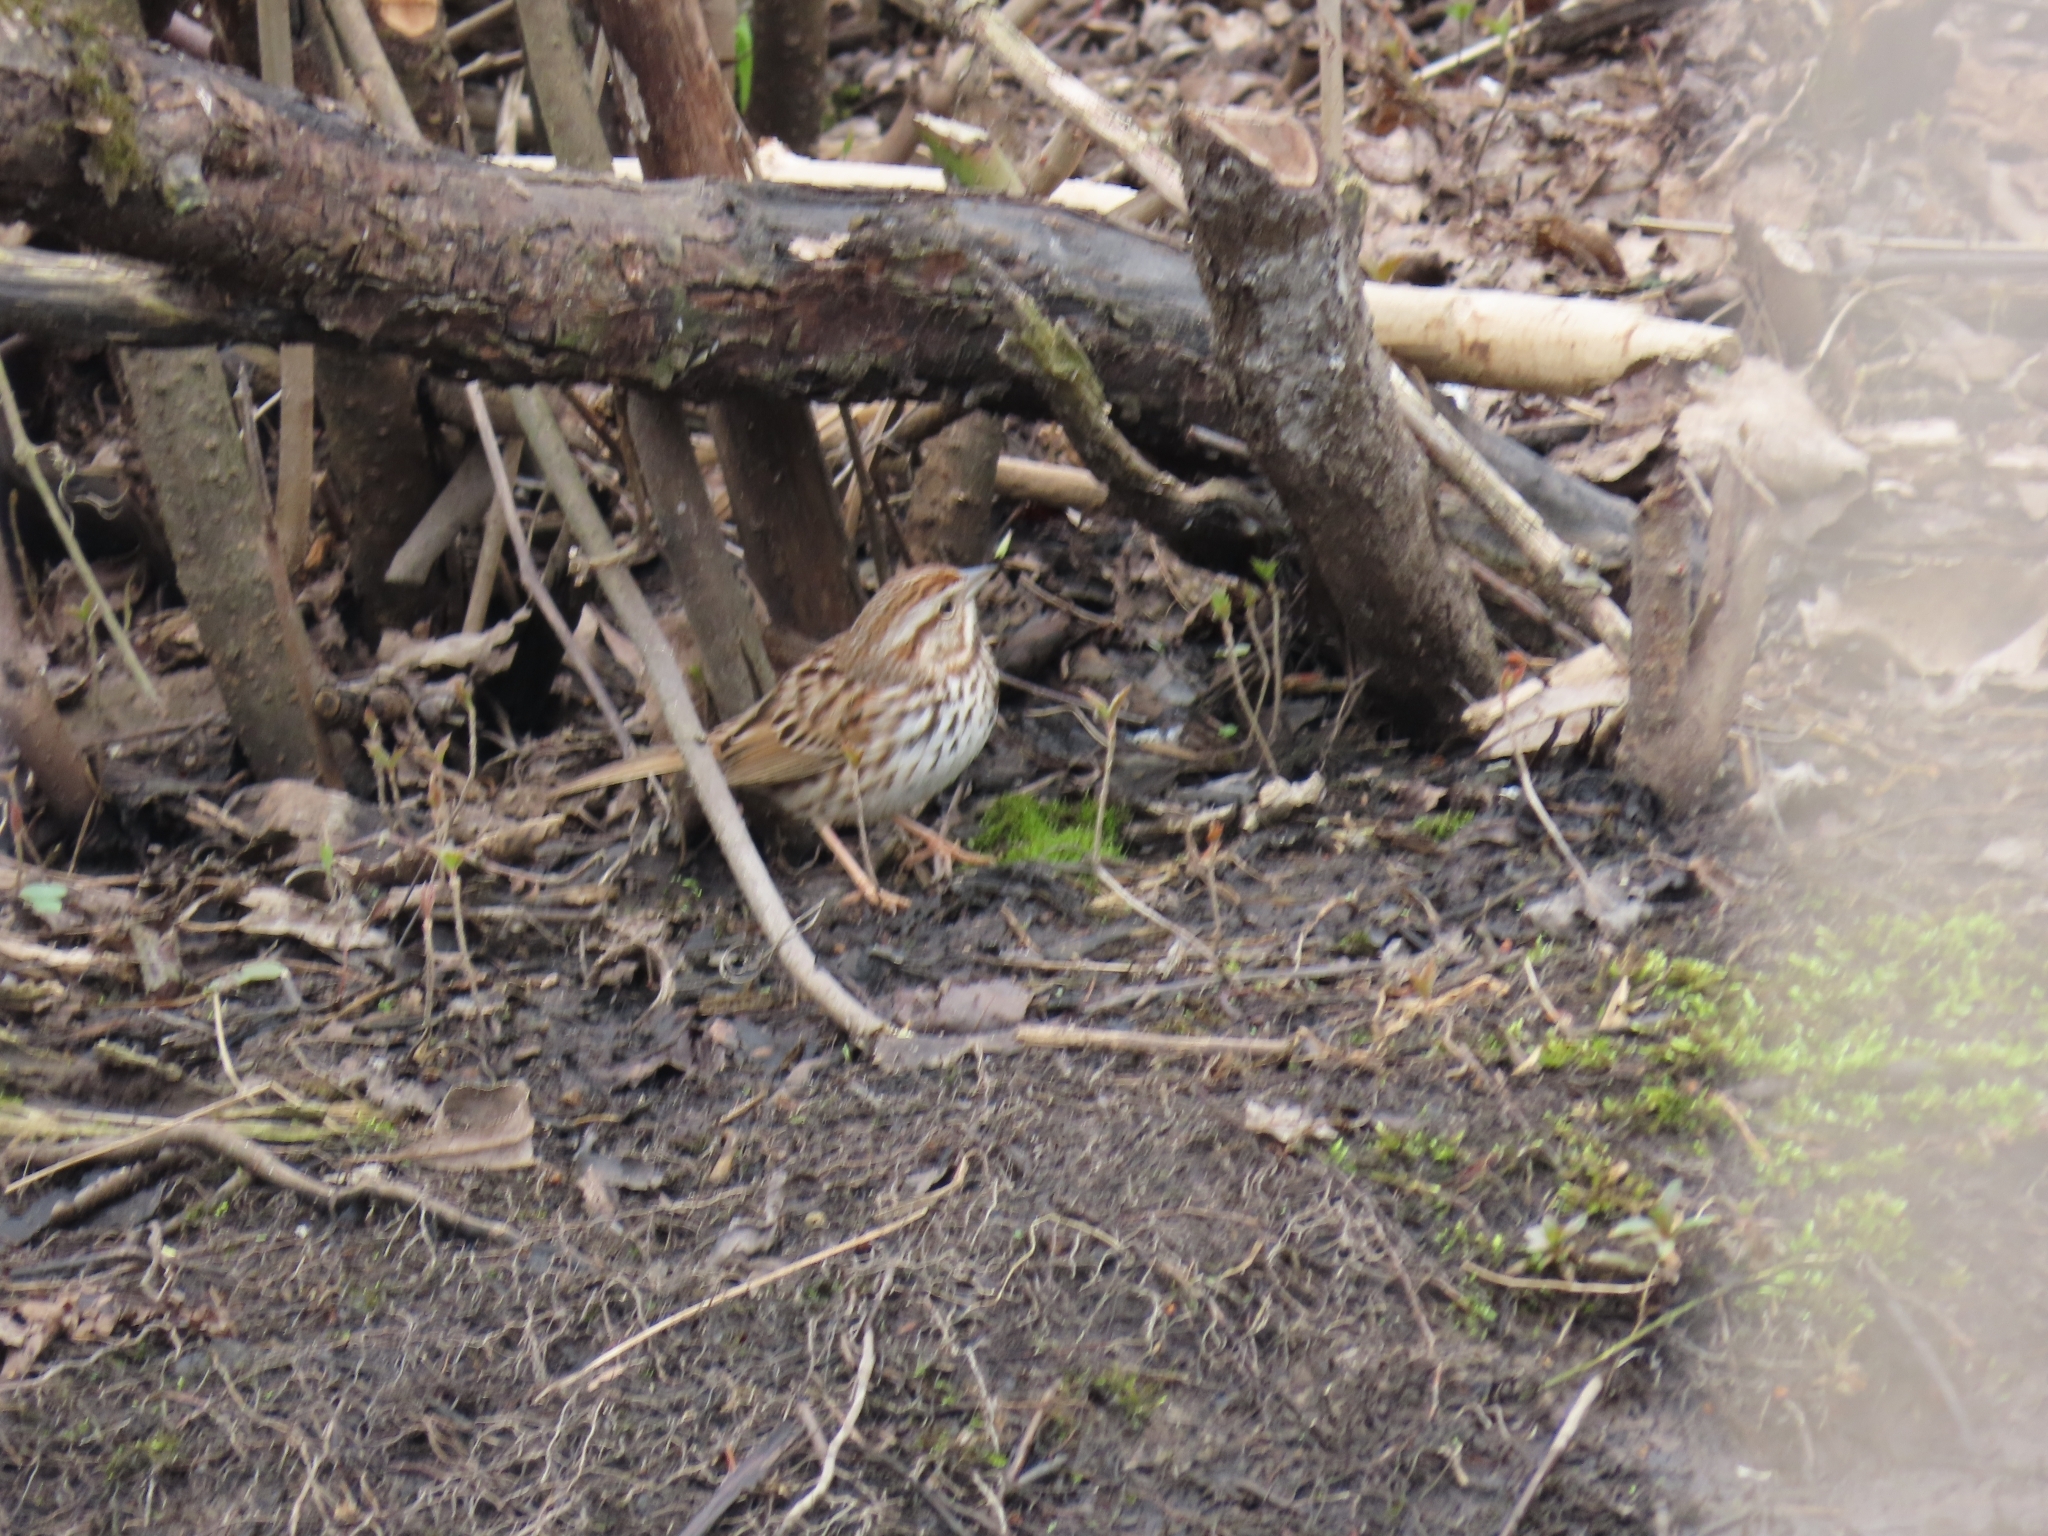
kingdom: Animalia
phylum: Chordata
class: Aves
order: Passeriformes
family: Passerellidae
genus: Melospiza
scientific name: Melospiza melodia
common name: Song sparrow
